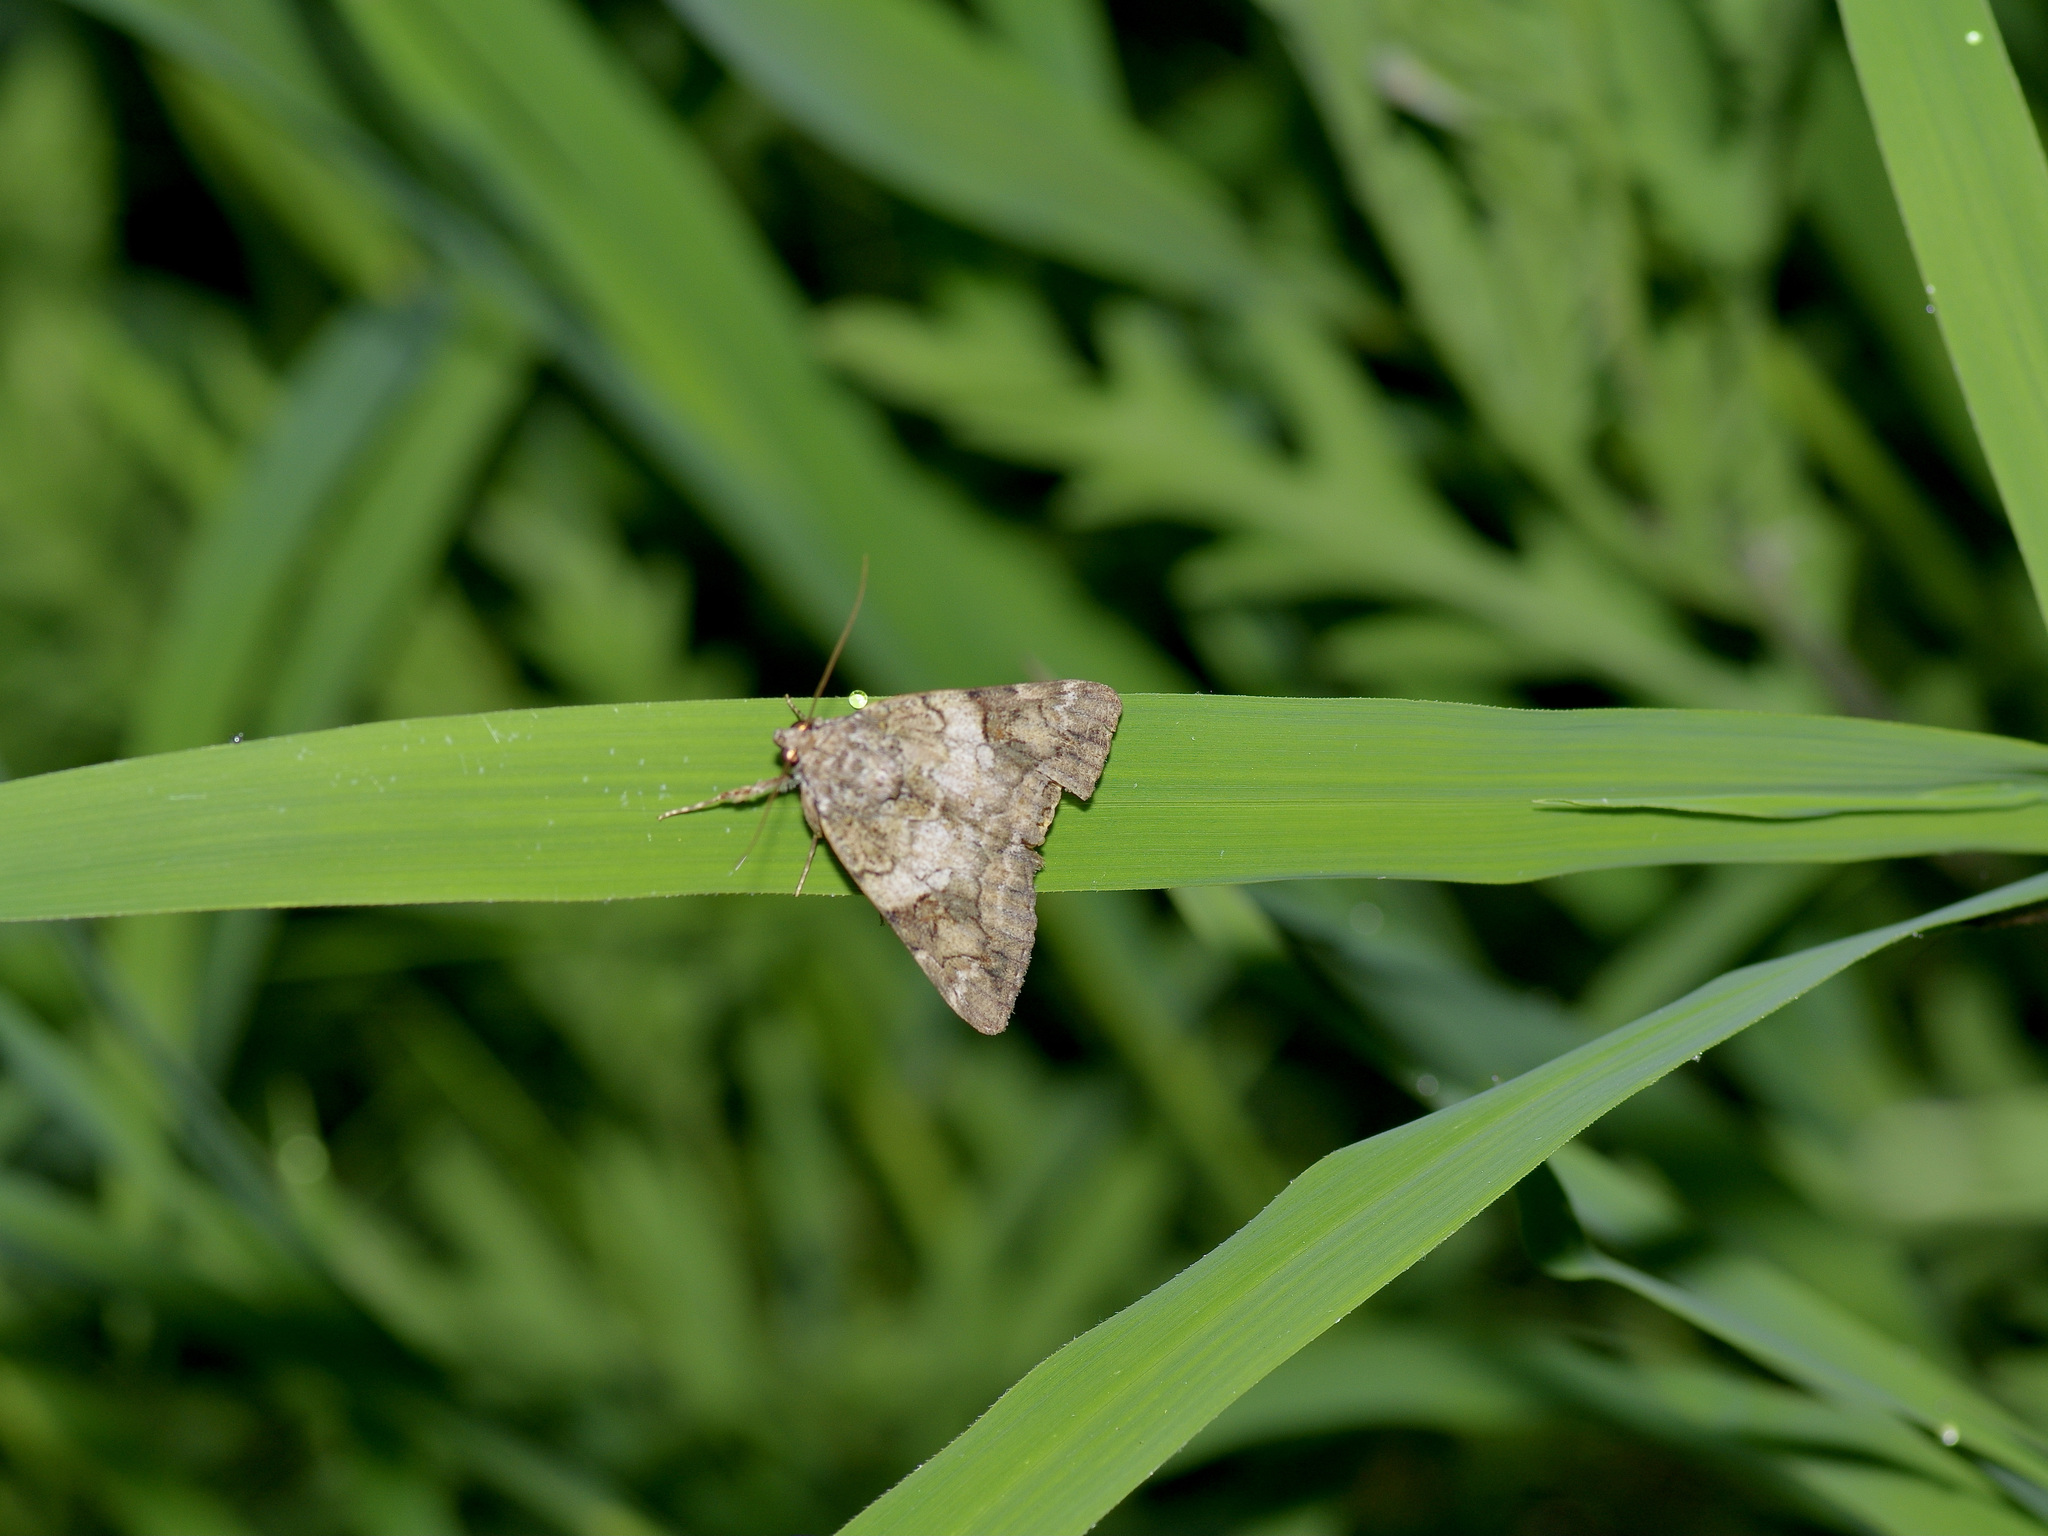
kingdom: Animalia
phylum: Arthropoda
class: Insecta
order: Lepidoptera
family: Erebidae
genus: Catocala
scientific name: Catocala micronympha
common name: Little nymph underwing
